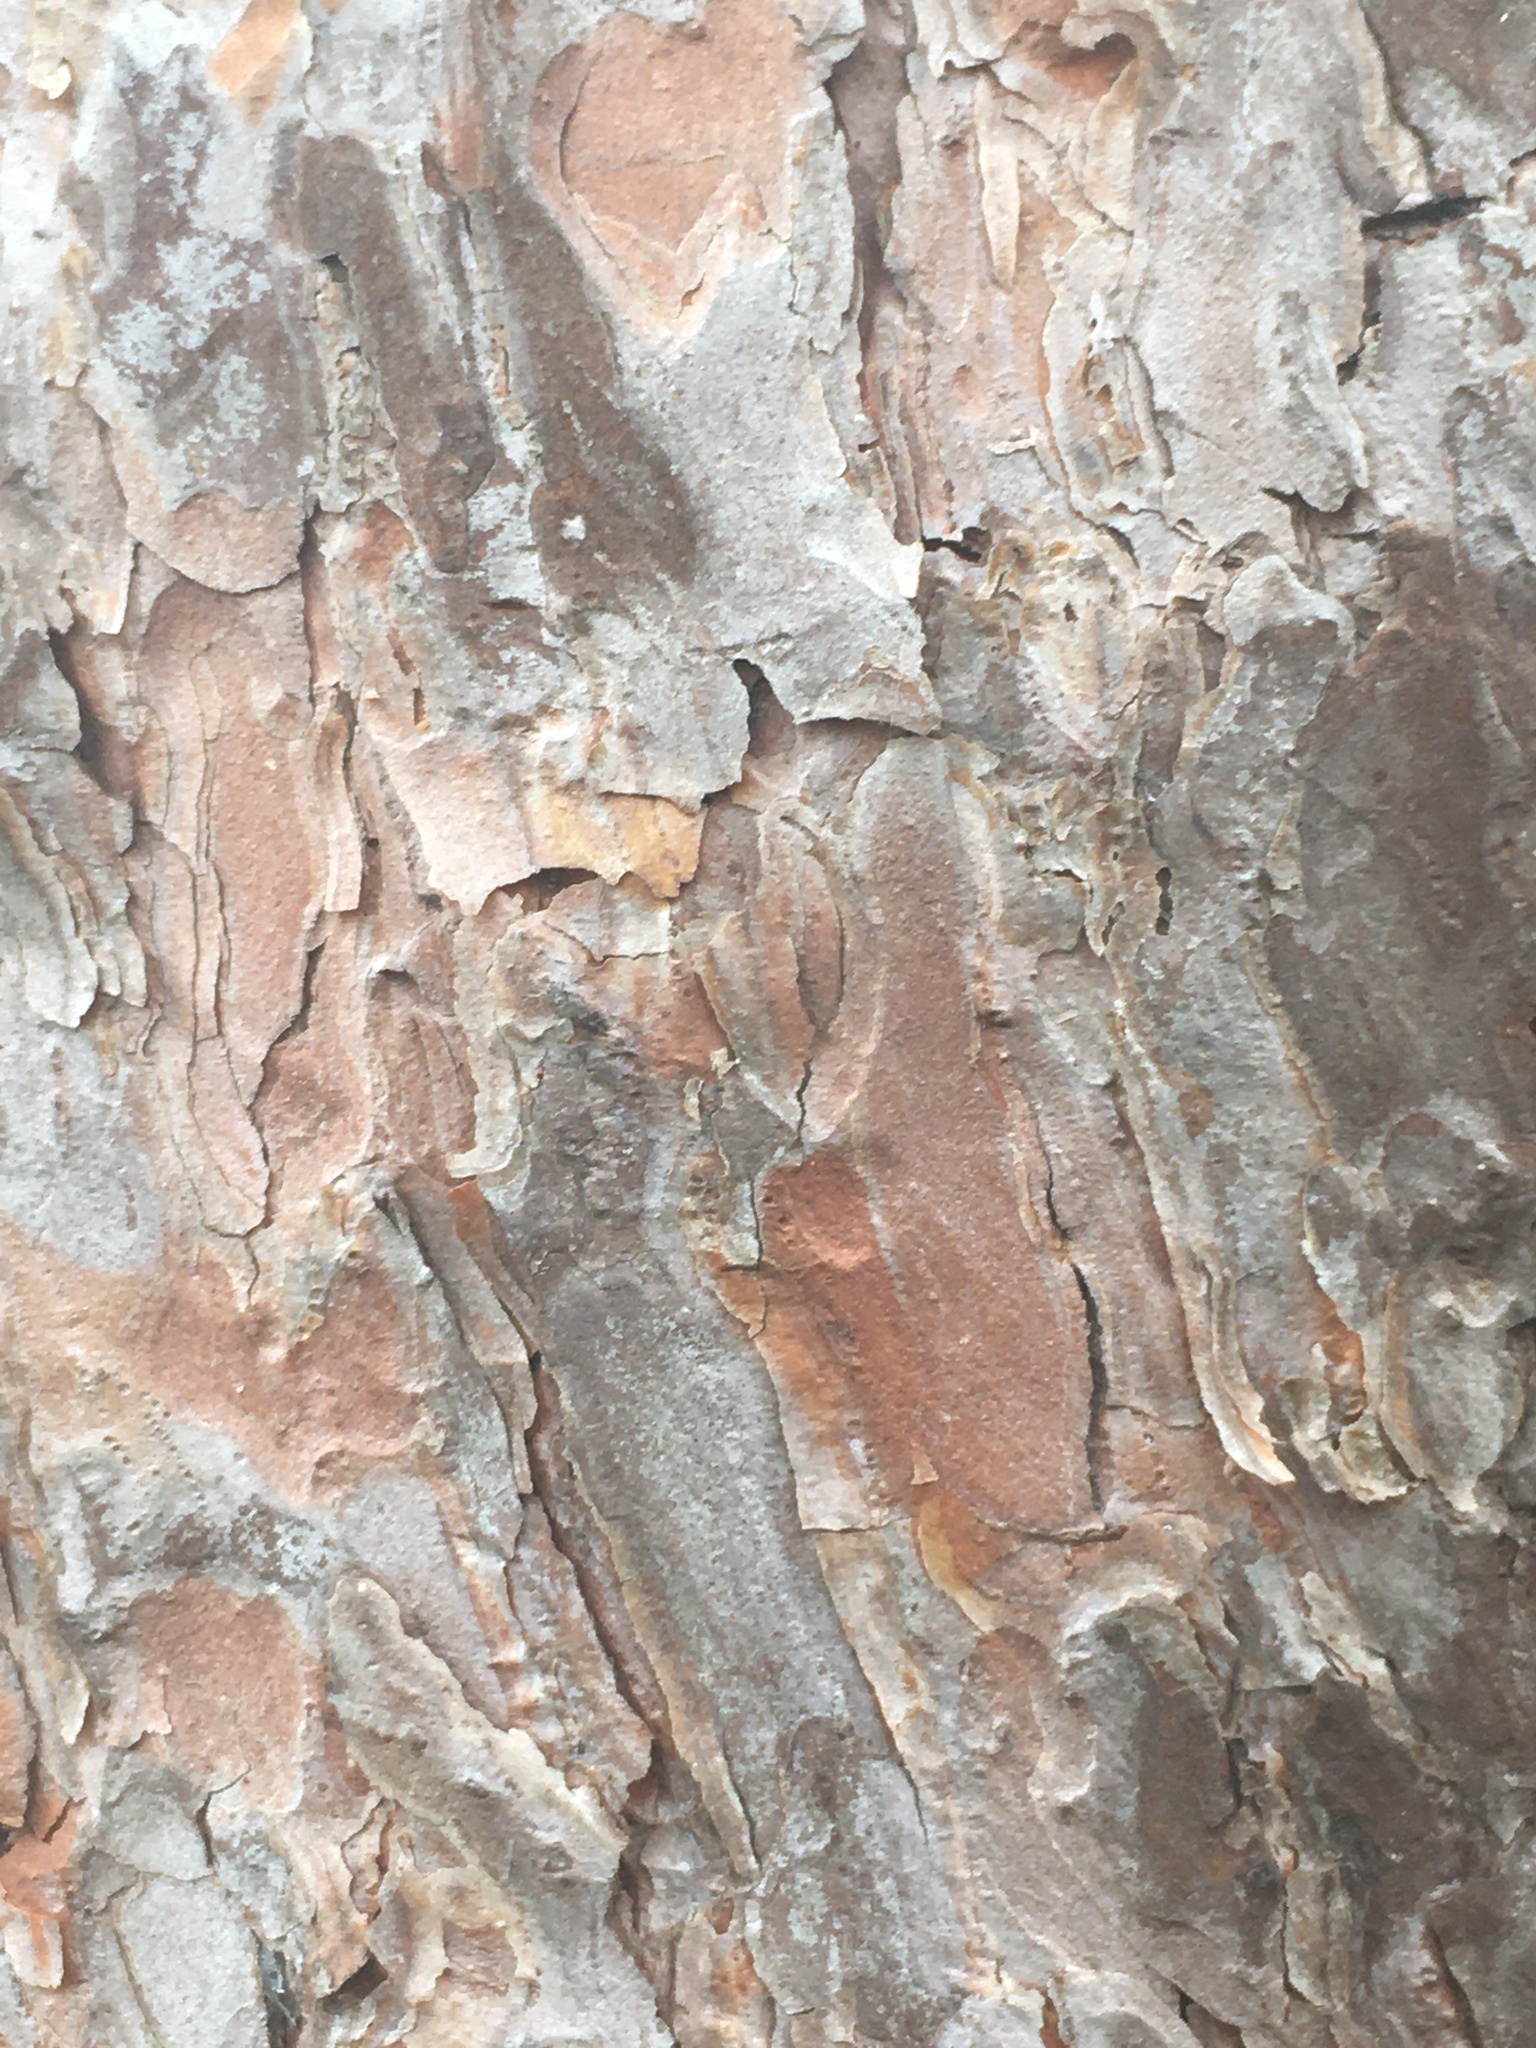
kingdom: Plantae
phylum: Tracheophyta
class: Pinopsida
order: Pinales
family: Pinaceae
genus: Pinus
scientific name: Pinus sylvestris
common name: Scots pine
